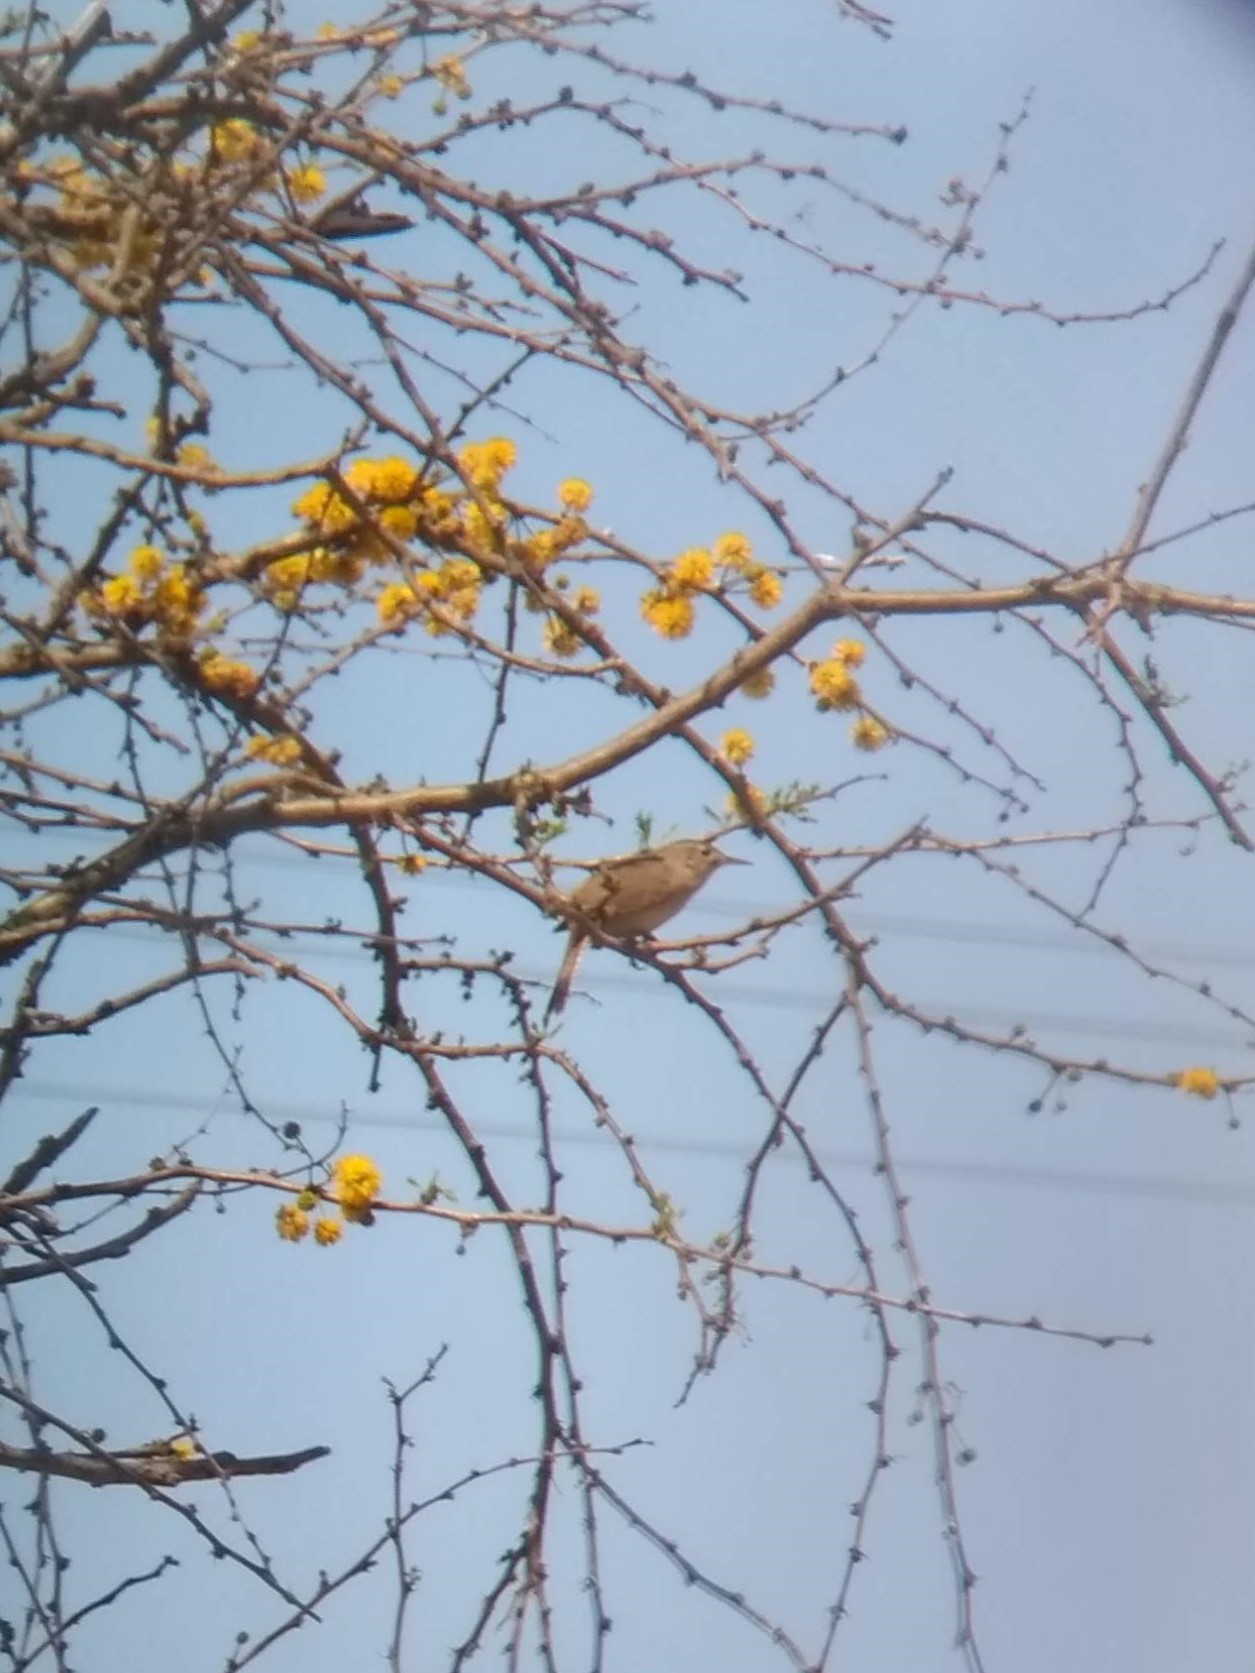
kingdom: Animalia
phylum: Chordata
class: Aves
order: Passeriformes
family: Troglodytidae
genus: Troglodytes
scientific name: Troglodytes aedon
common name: House wren
